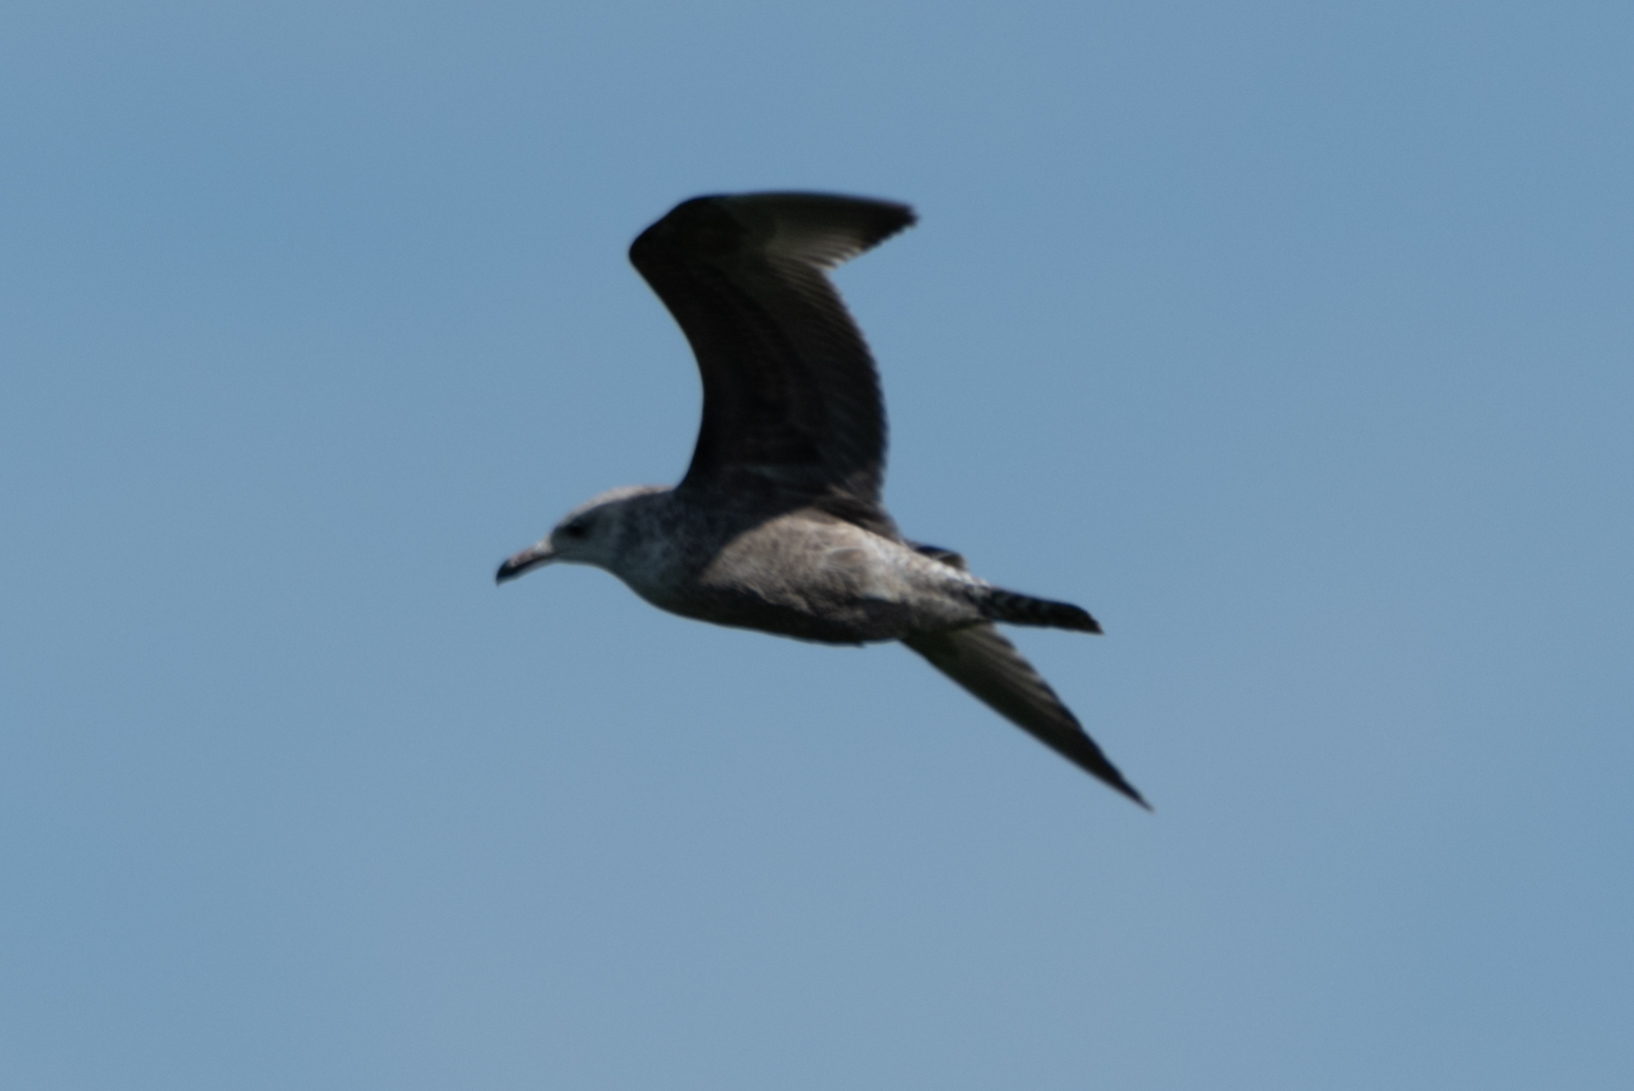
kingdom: Animalia
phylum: Chordata
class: Aves
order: Charadriiformes
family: Laridae
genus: Larus
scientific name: Larus argentatus
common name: Herring gull
